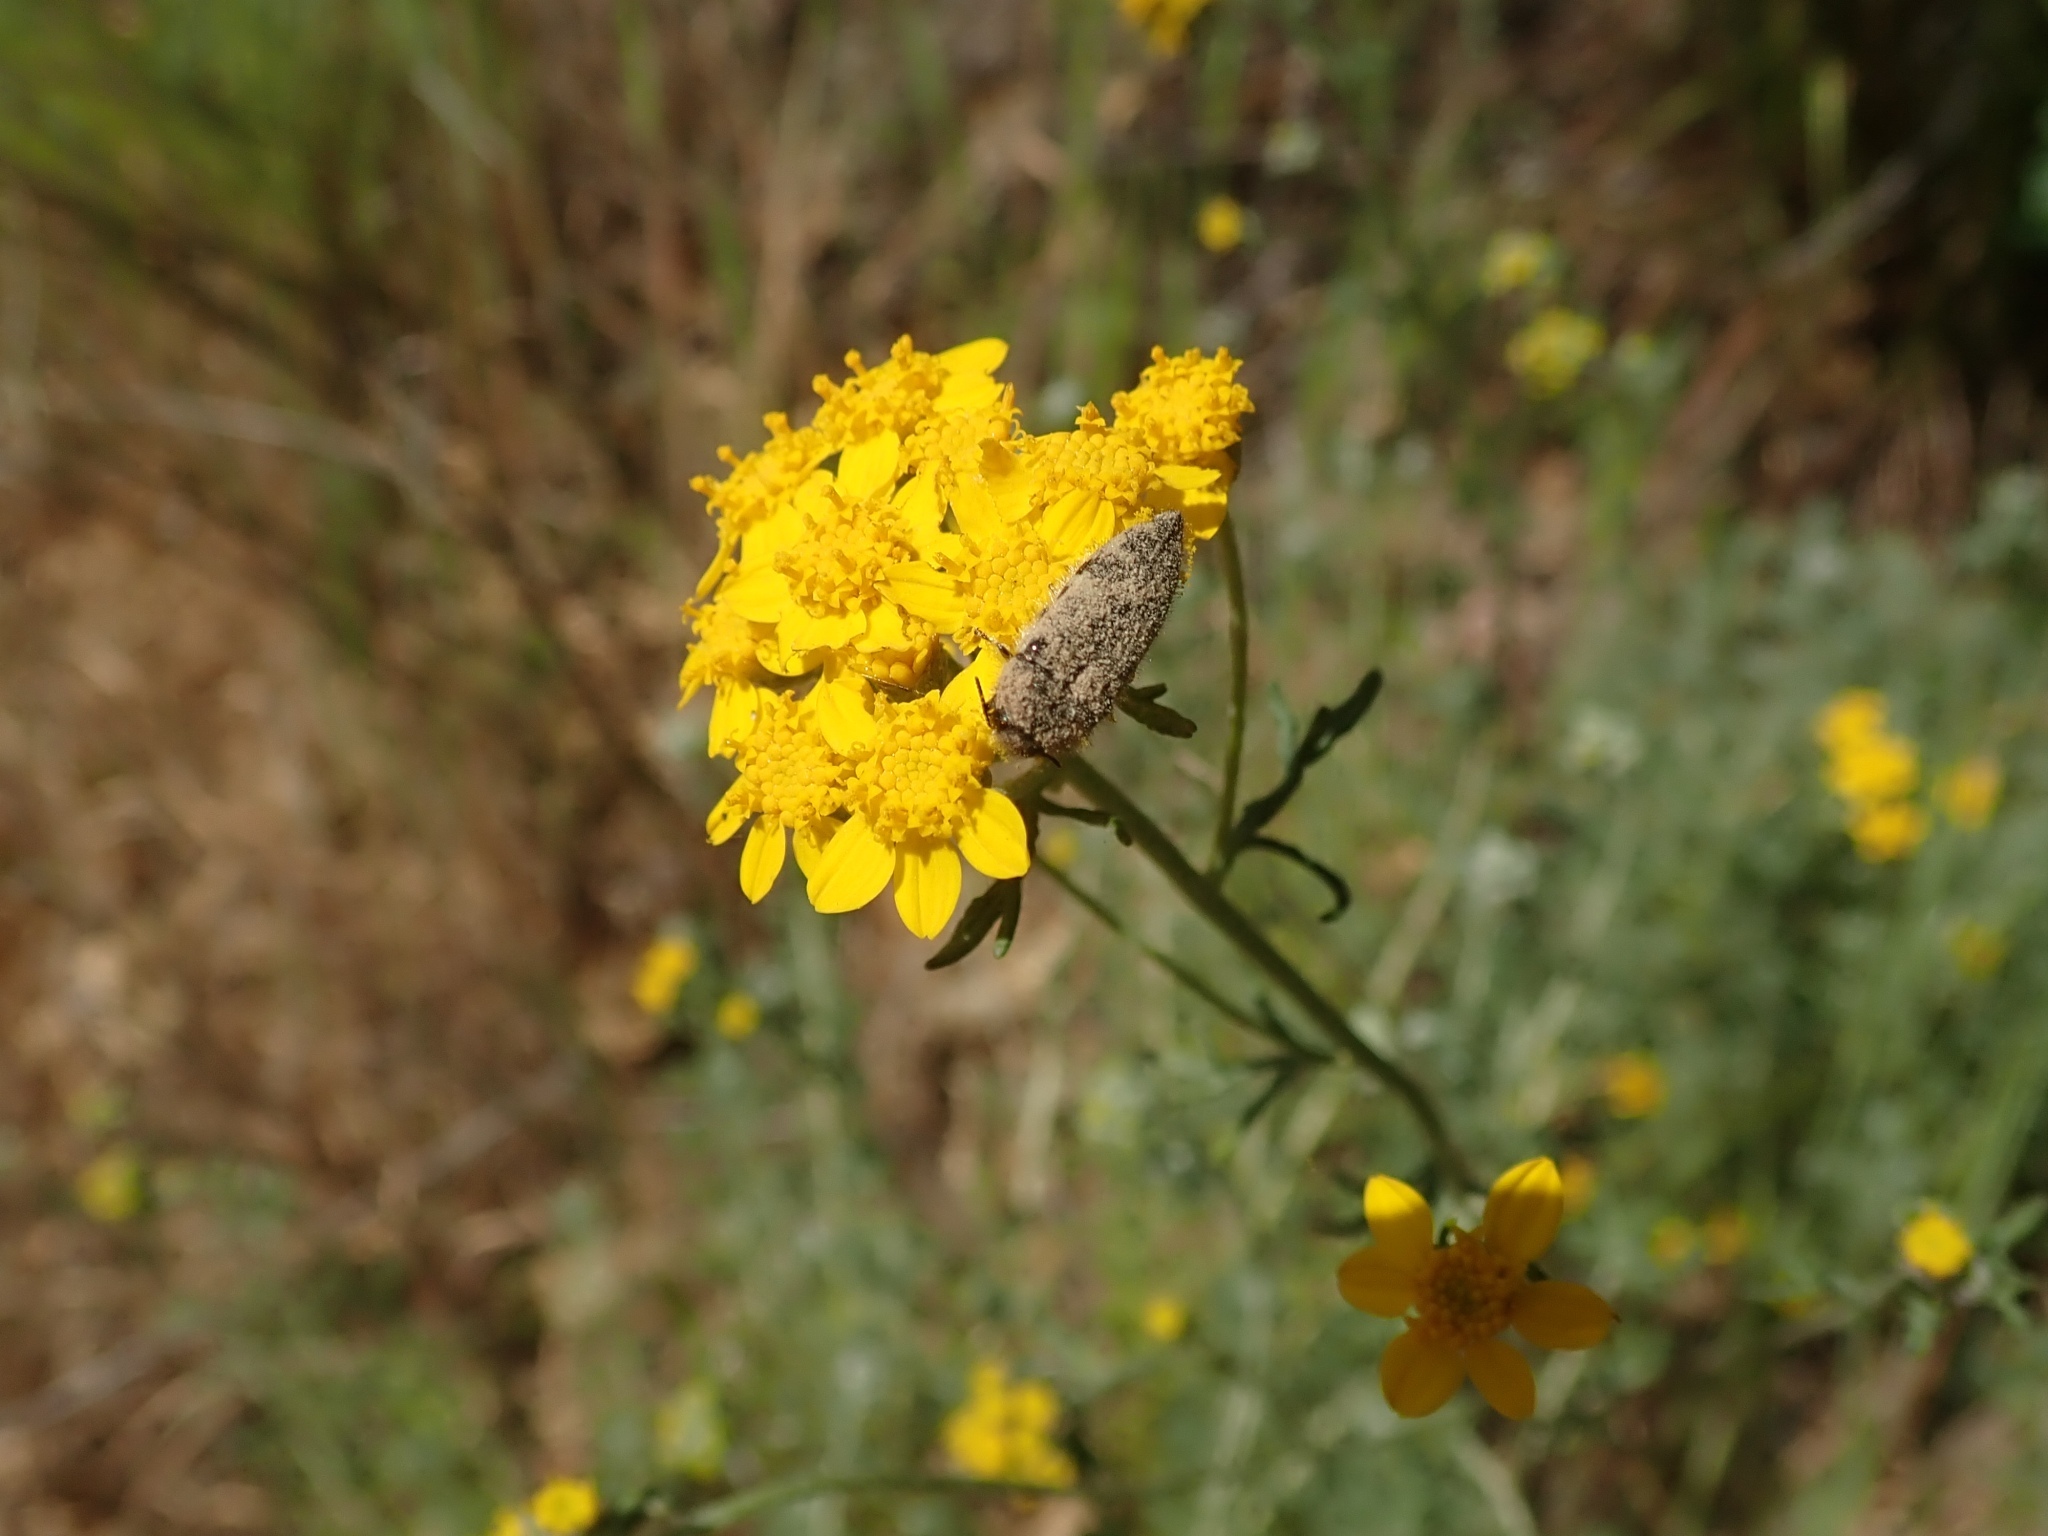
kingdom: Plantae
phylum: Tracheophyta
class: Magnoliopsida
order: Asterales
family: Asteraceae
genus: Eriophyllum
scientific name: Eriophyllum confertiflorum
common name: Golden-yarrow
